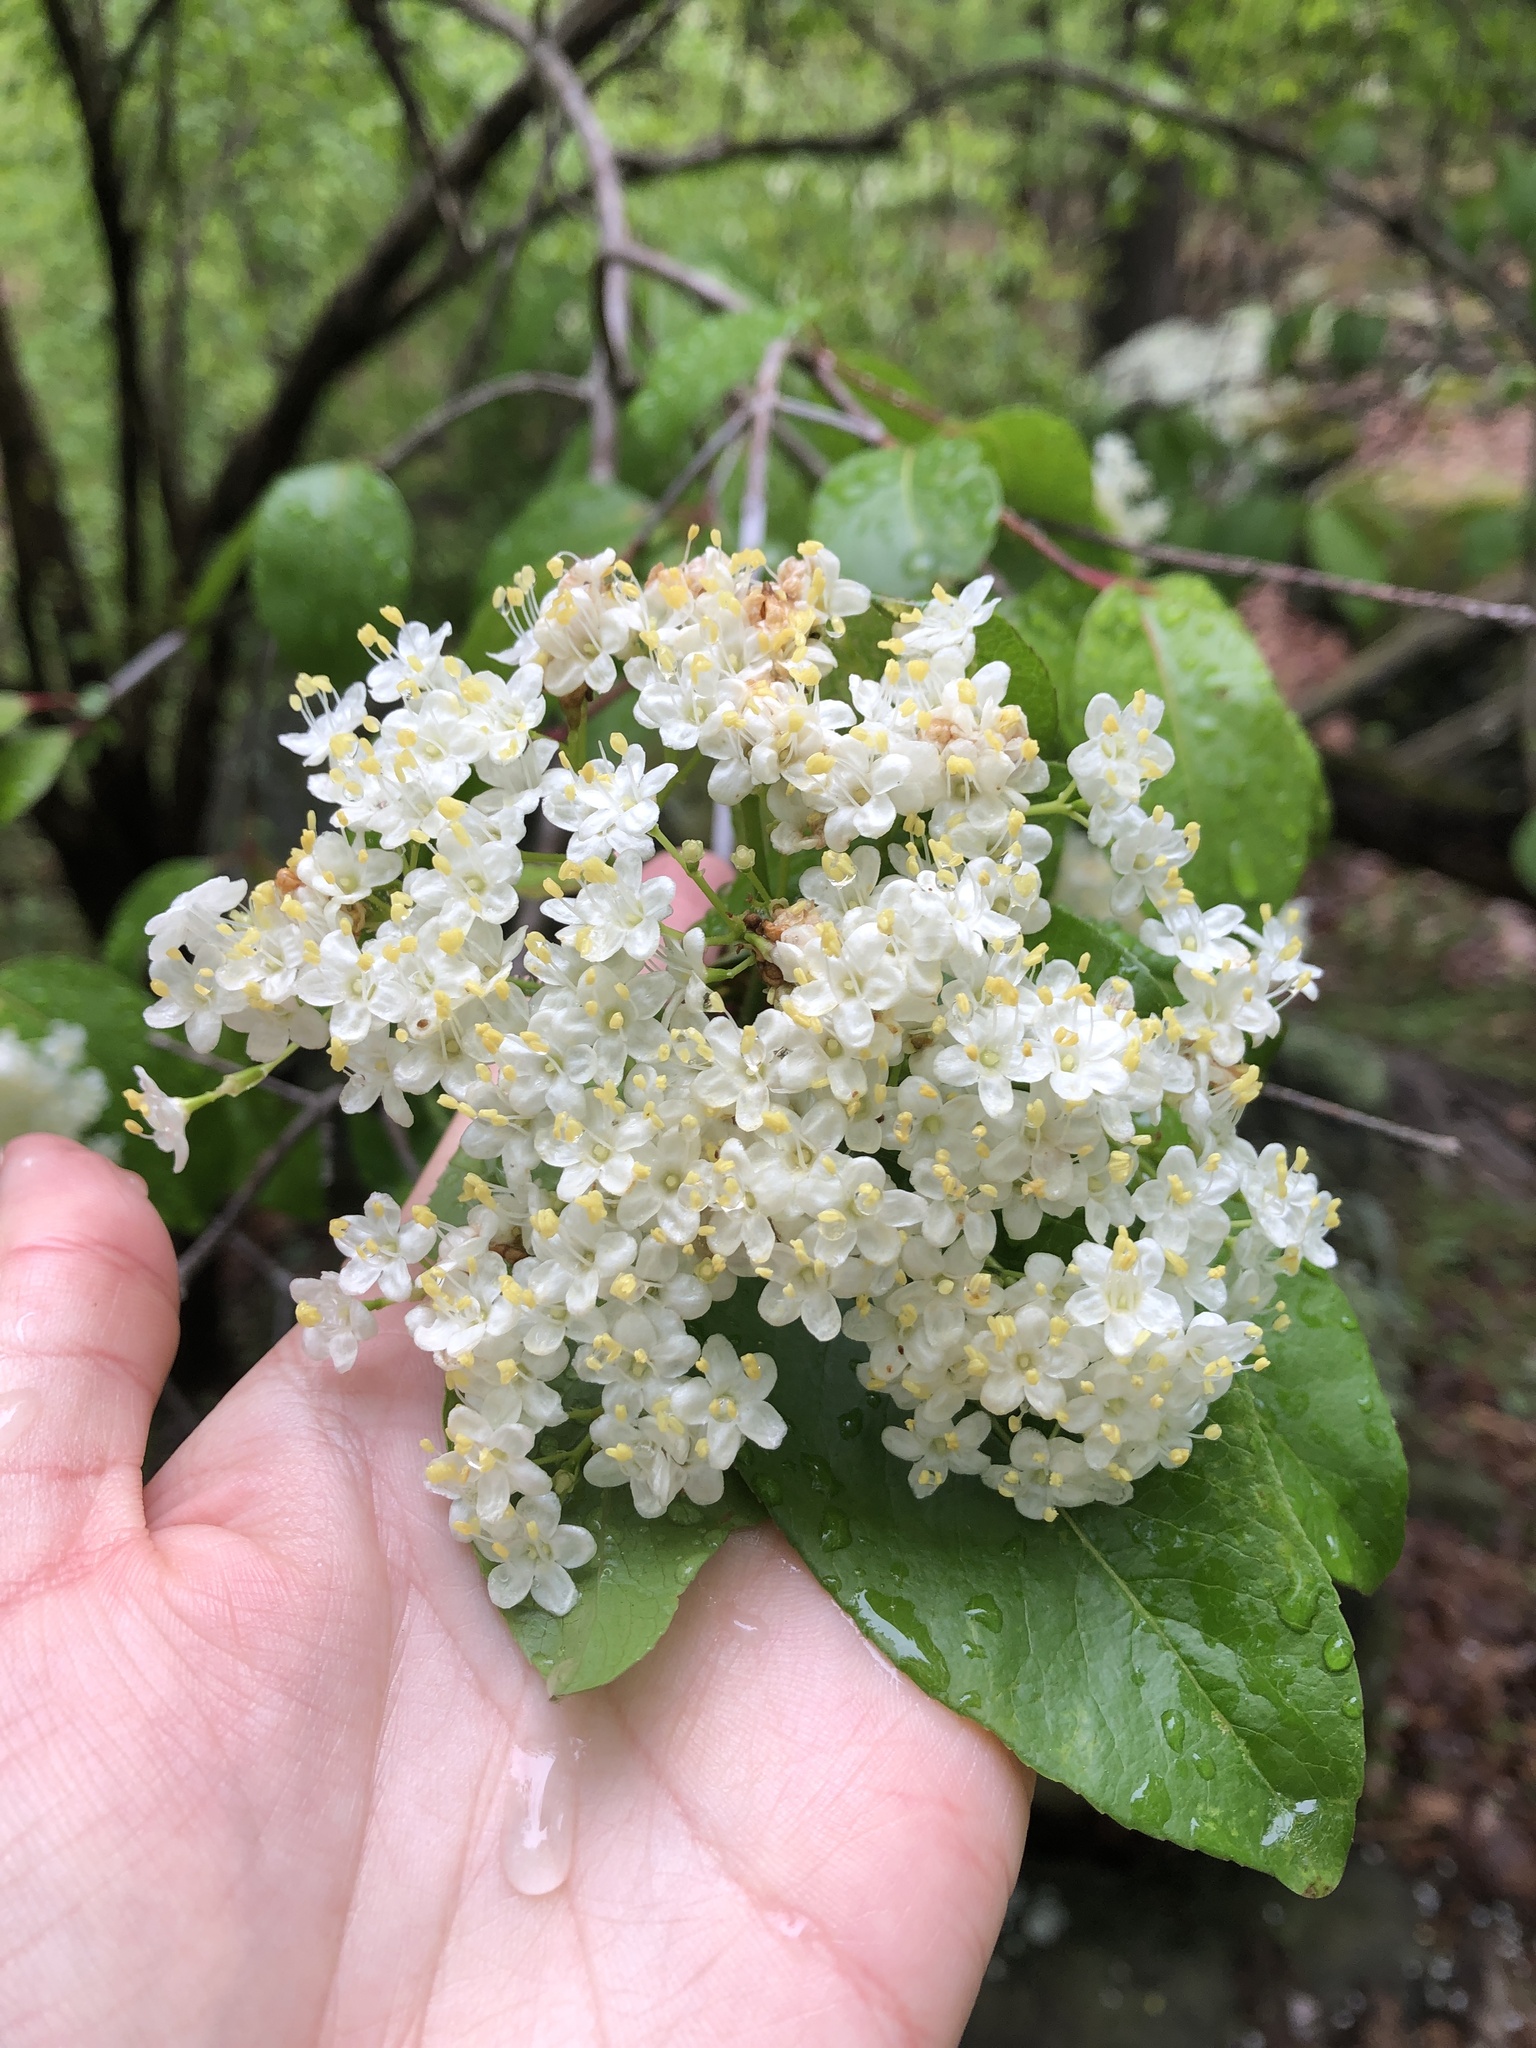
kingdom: Plantae
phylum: Tracheophyta
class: Magnoliopsida
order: Dipsacales
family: Viburnaceae
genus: Viburnum
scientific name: Viburnum prunifolium
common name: Black haw
